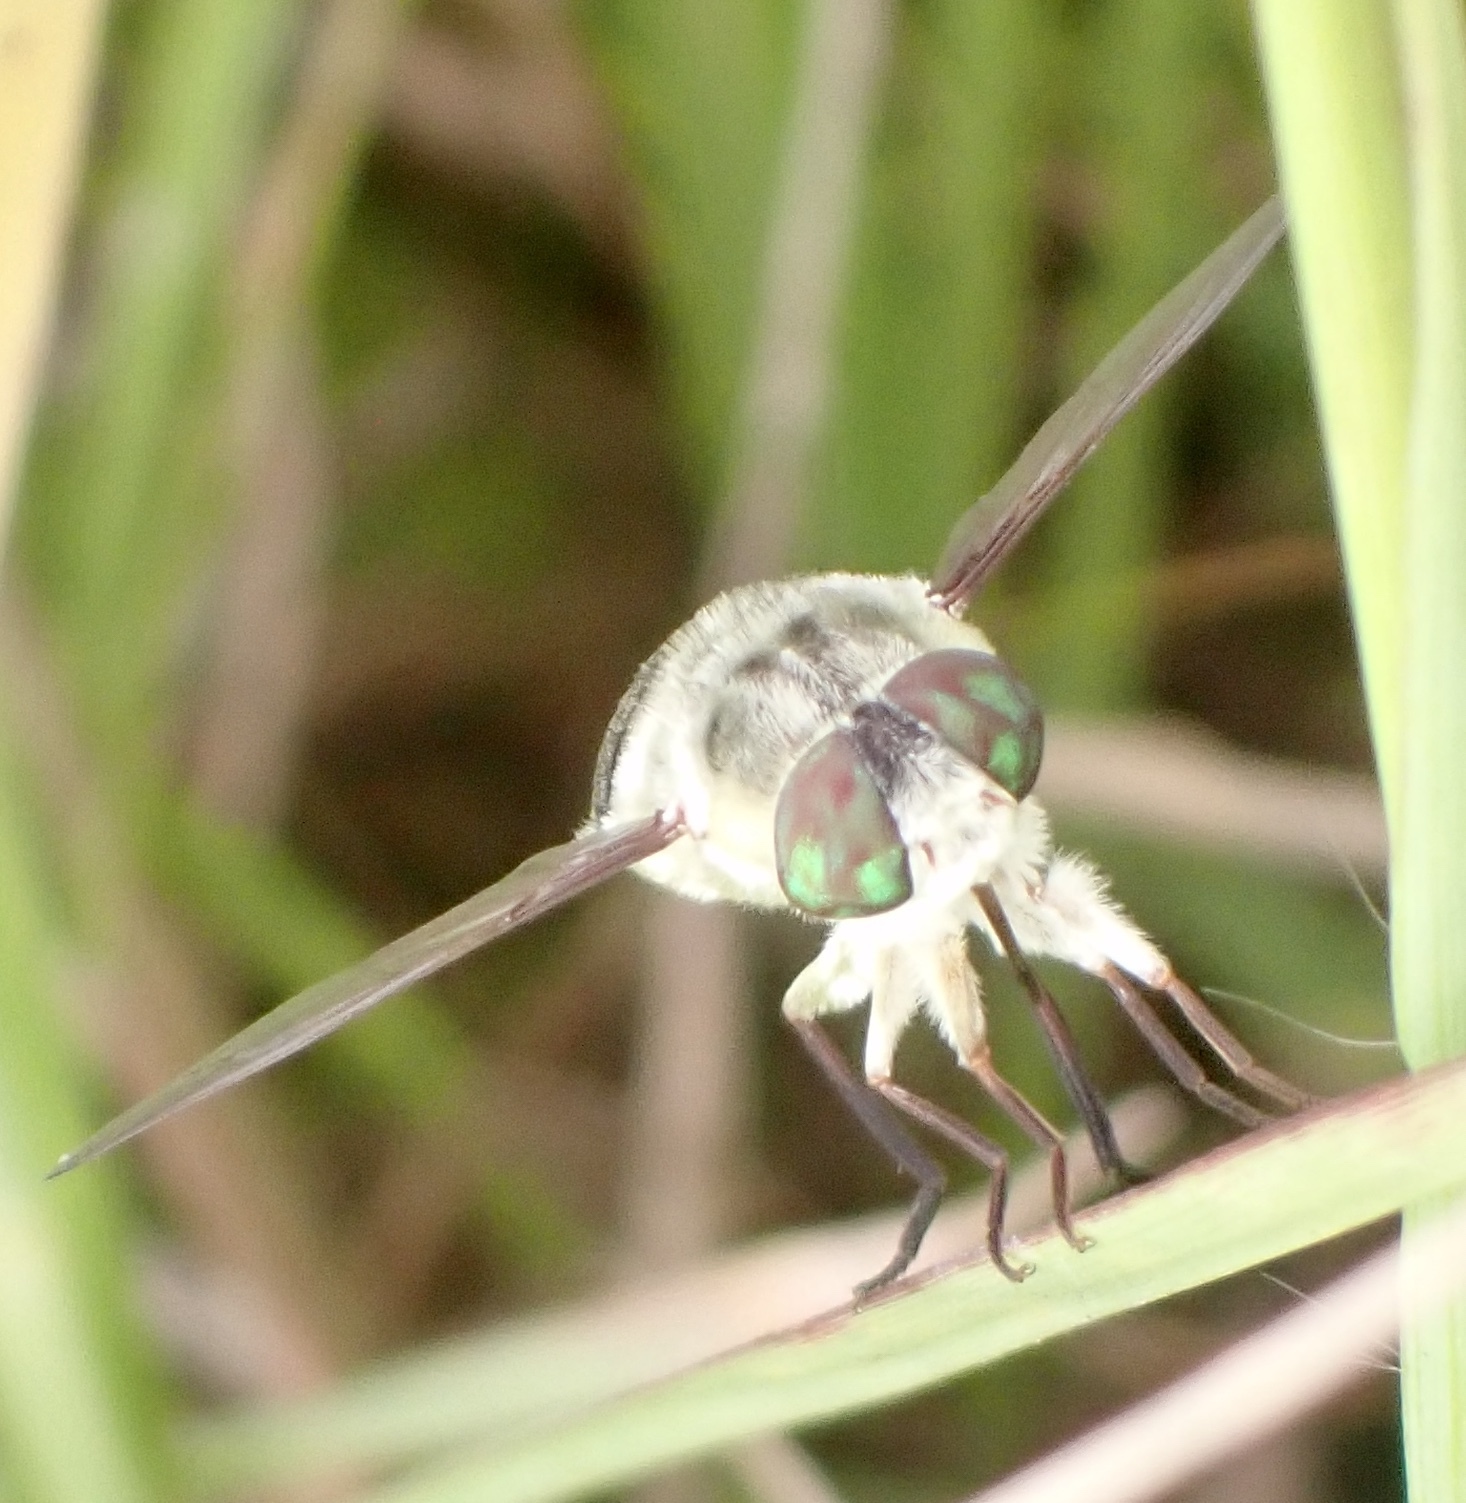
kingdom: Animalia
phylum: Arthropoda
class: Insecta
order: Diptera
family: Nemestrinidae
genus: Neorhynchocephalus
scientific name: Neorhynchocephalus volaticus
